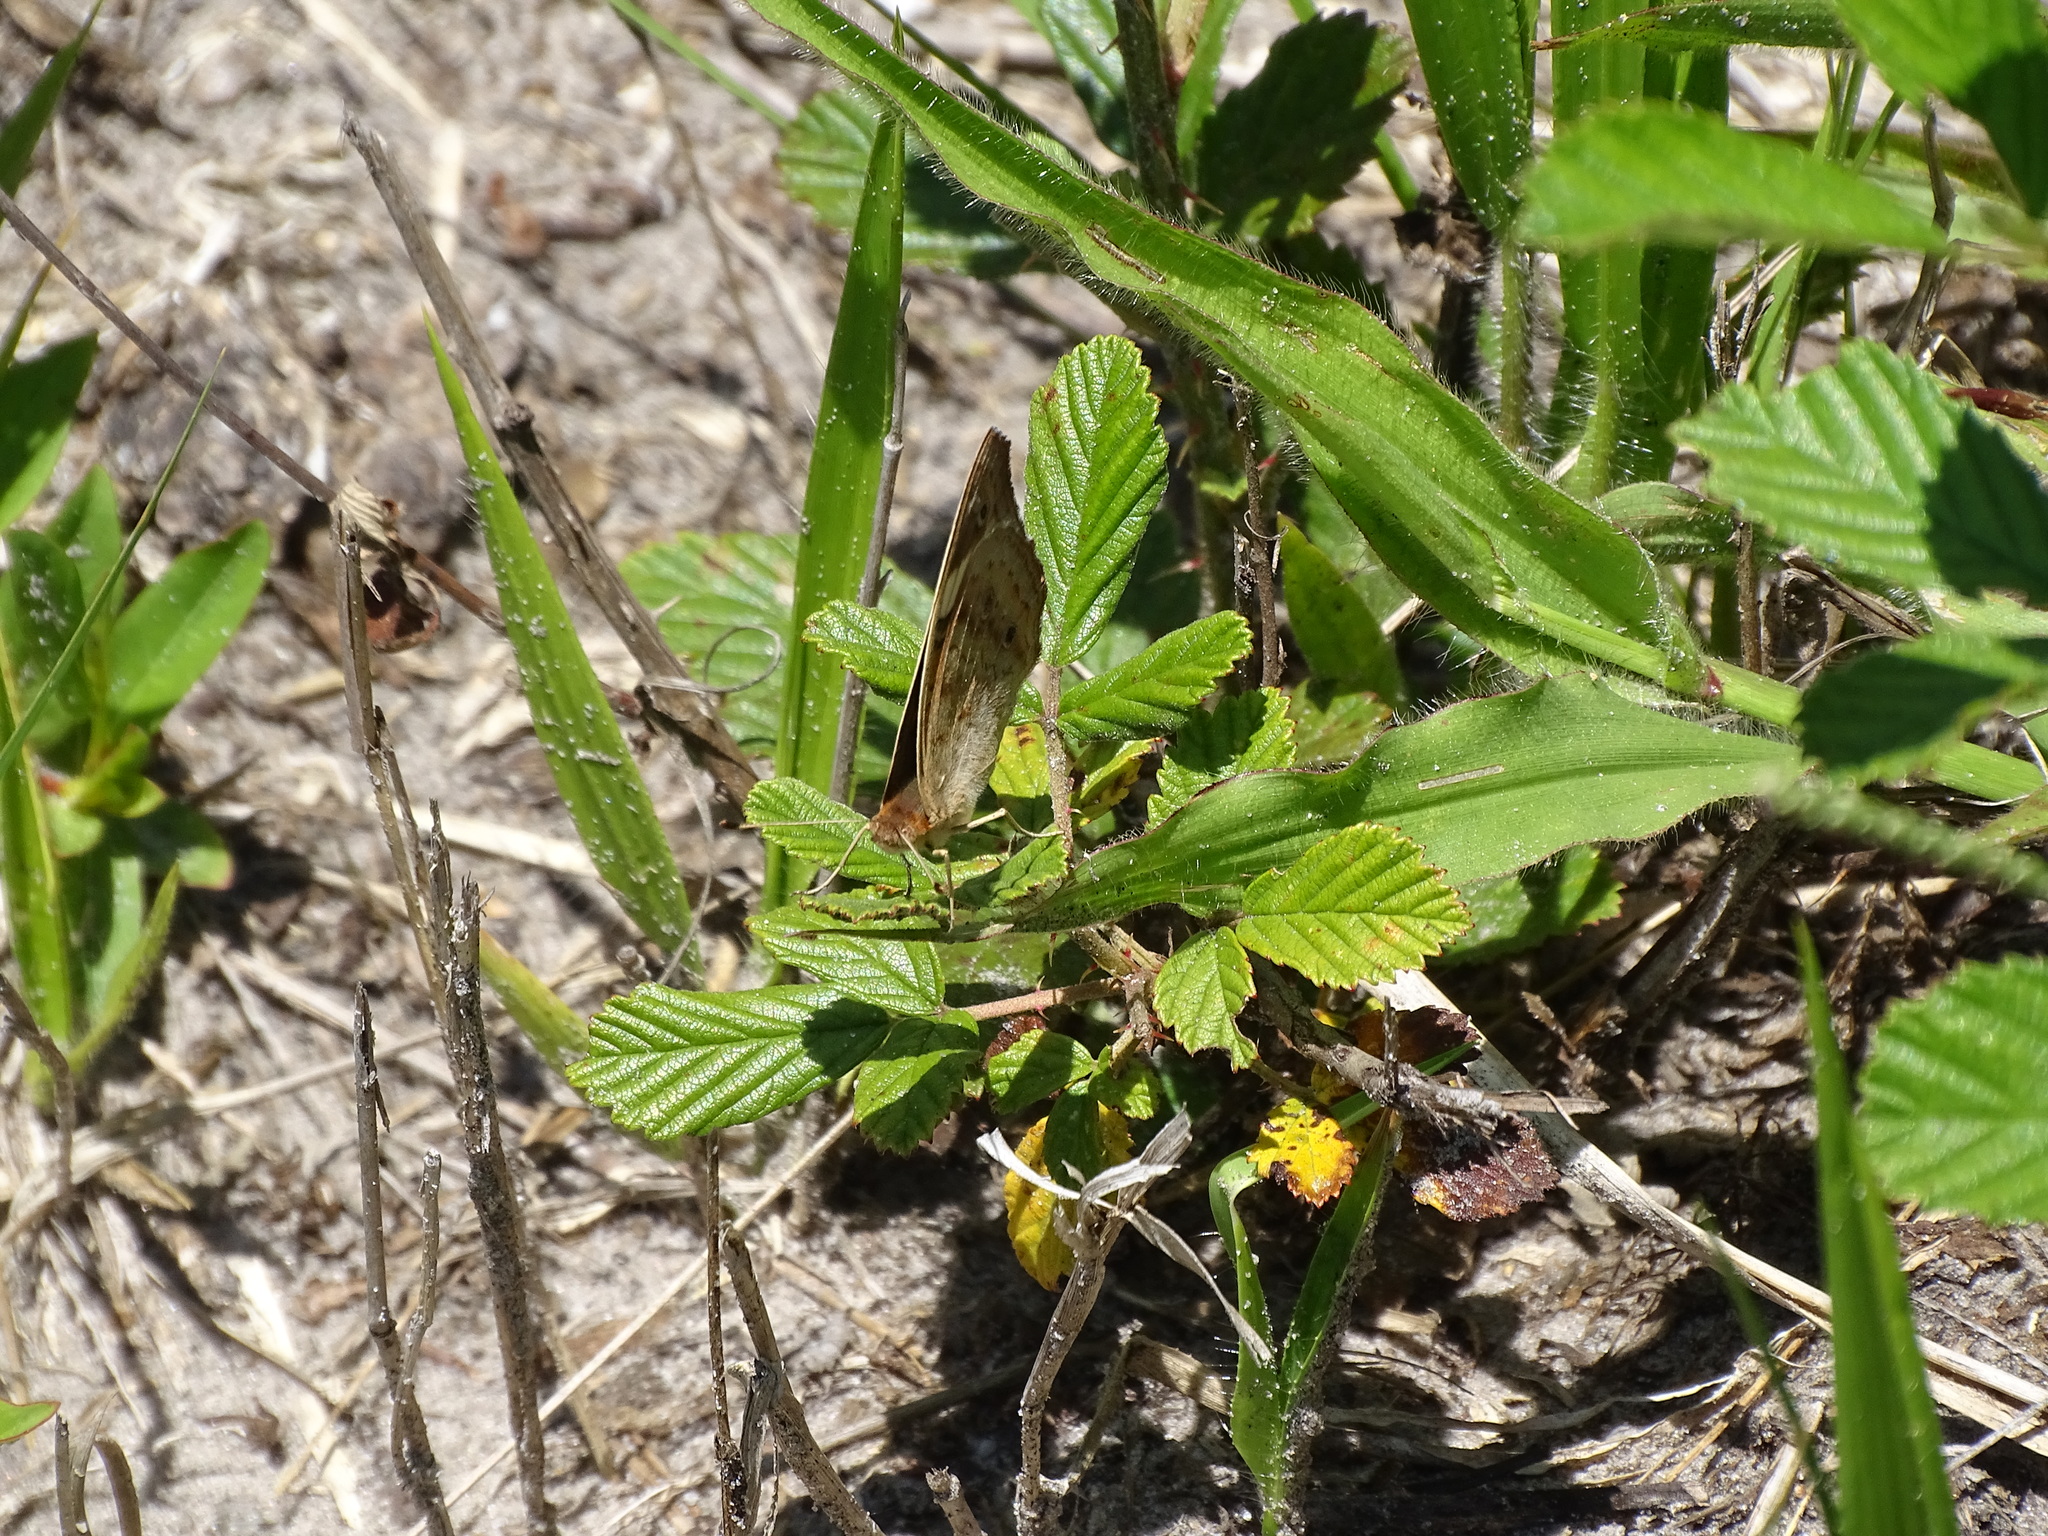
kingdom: Animalia
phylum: Arthropoda
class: Insecta
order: Lepidoptera
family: Nymphalidae
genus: Junonia
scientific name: Junonia coenia
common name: Common buckeye
